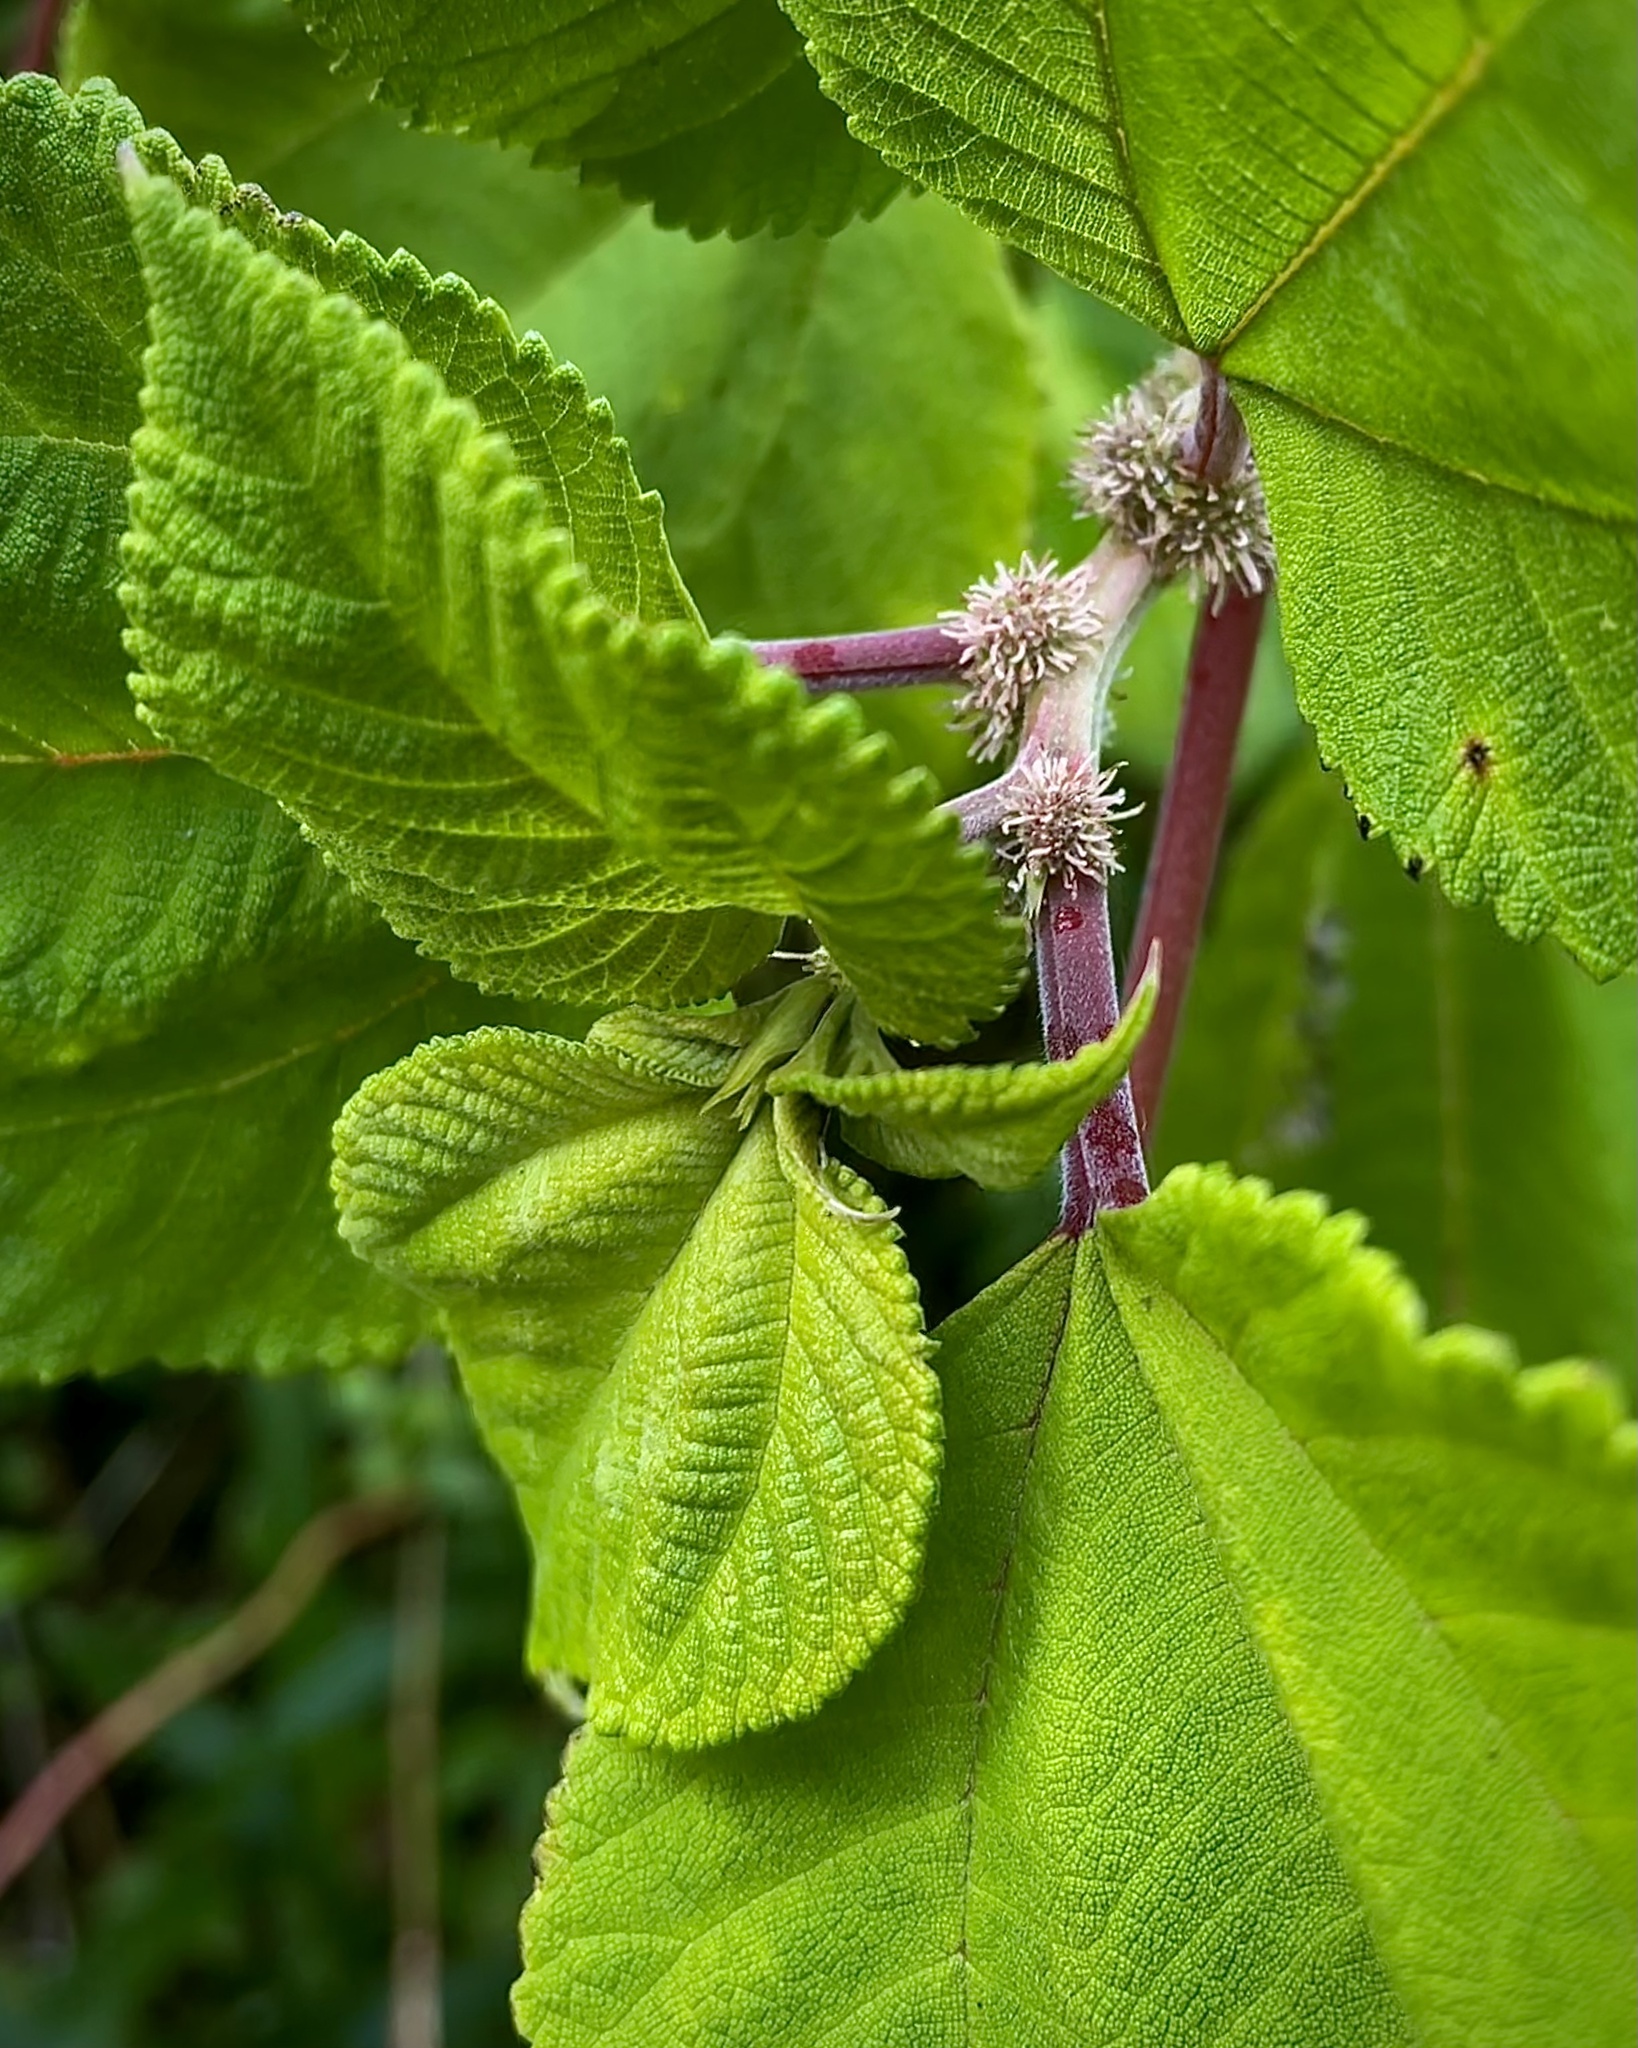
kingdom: Plantae
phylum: Tracheophyta
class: Magnoliopsida
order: Rosales
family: Urticaceae
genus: Pipturus
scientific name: Pipturus albidus
